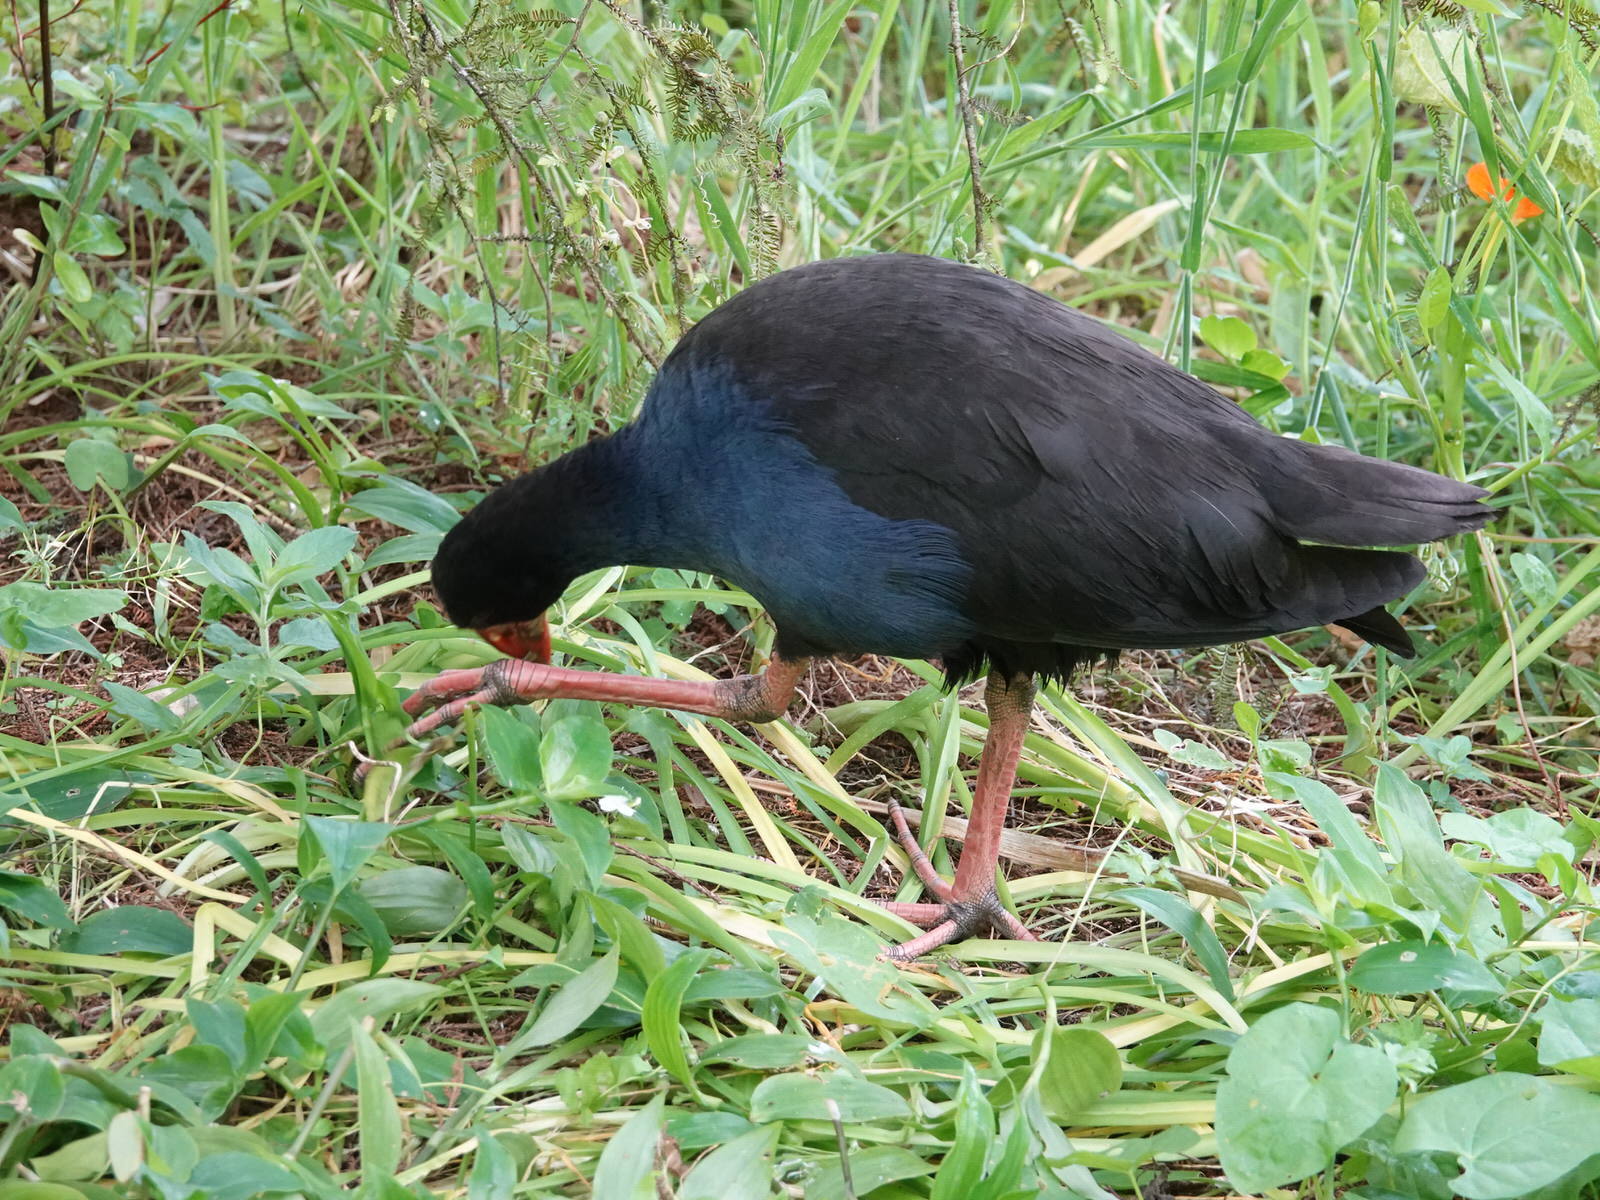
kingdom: Animalia
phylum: Chordata
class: Aves
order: Gruiformes
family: Rallidae
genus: Porphyrio
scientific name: Porphyrio melanotus
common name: Australasian swamphen
